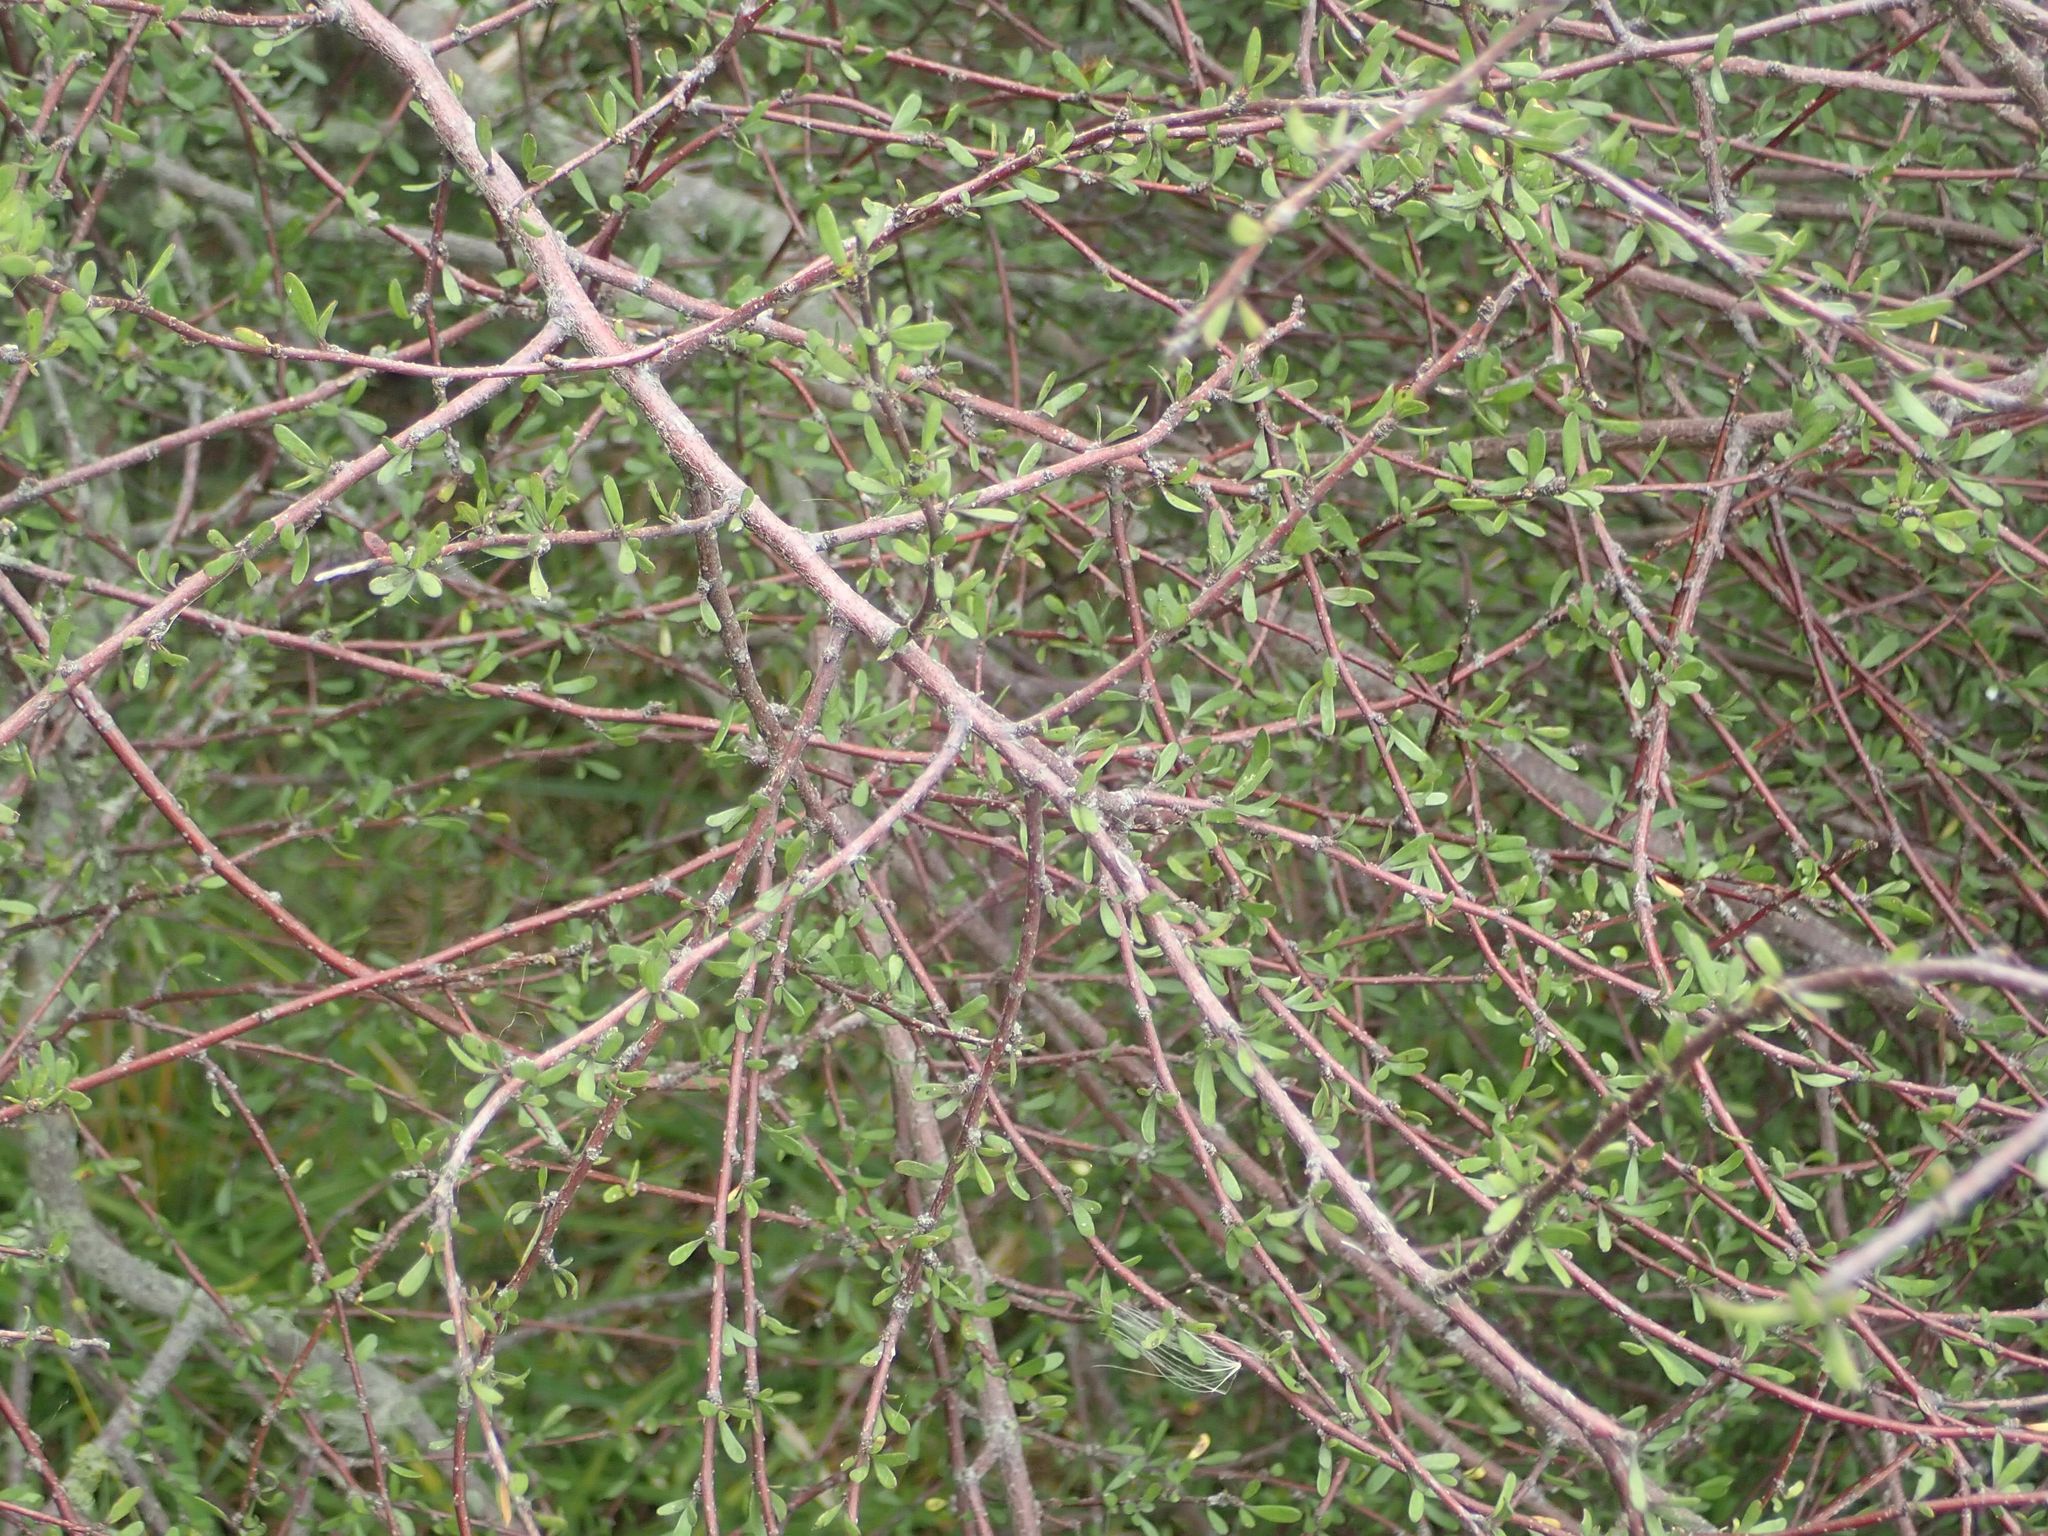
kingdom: Plantae
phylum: Tracheophyta
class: Magnoliopsida
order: Malvales
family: Malvaceae
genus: Plagianthus
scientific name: Plagianthus divaricatus
